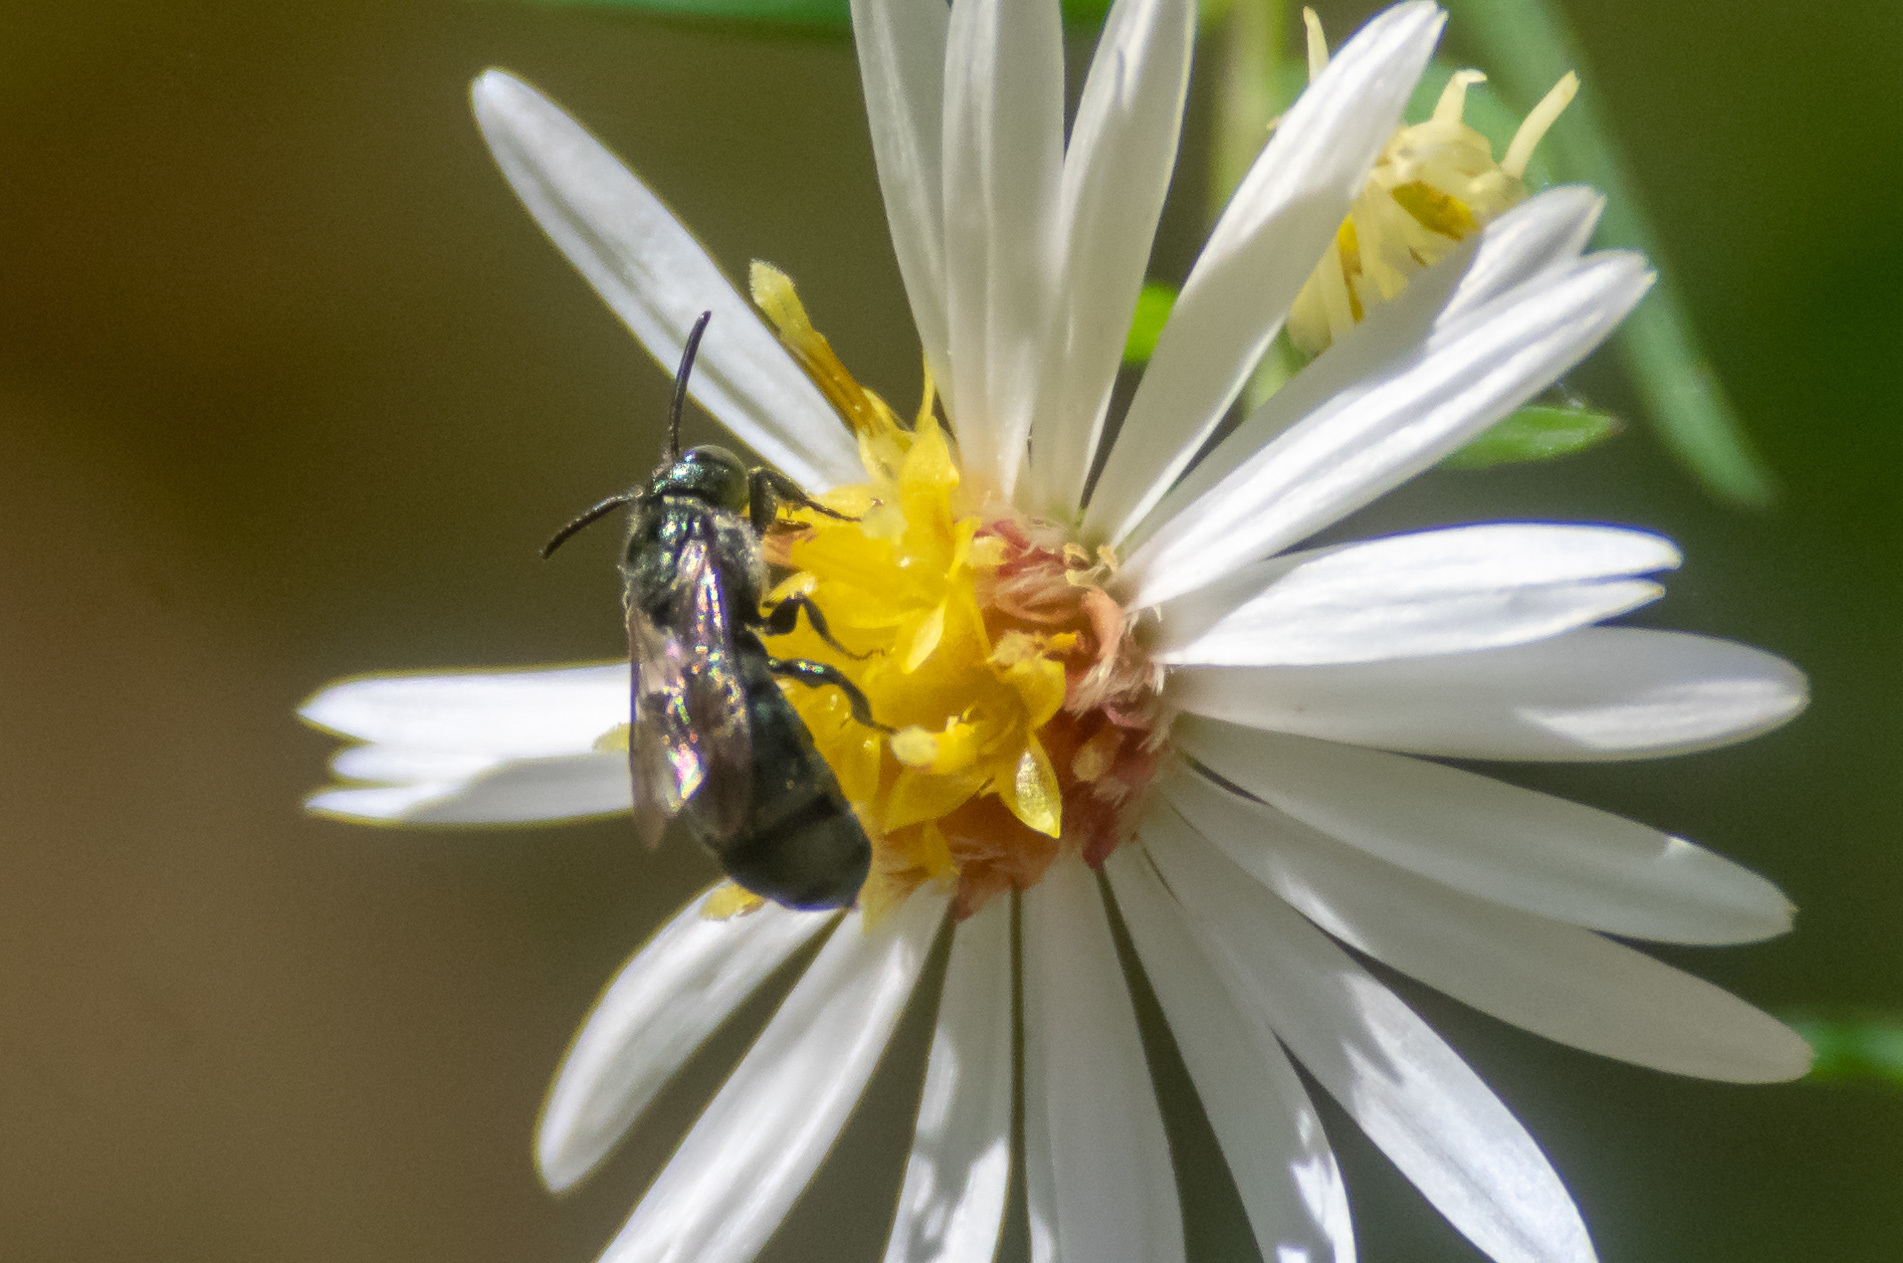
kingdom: Animalia
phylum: Arthropoda
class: Insecta
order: Hymenoptera
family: Apidae
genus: Zadontomerus
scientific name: Zadontomerus
